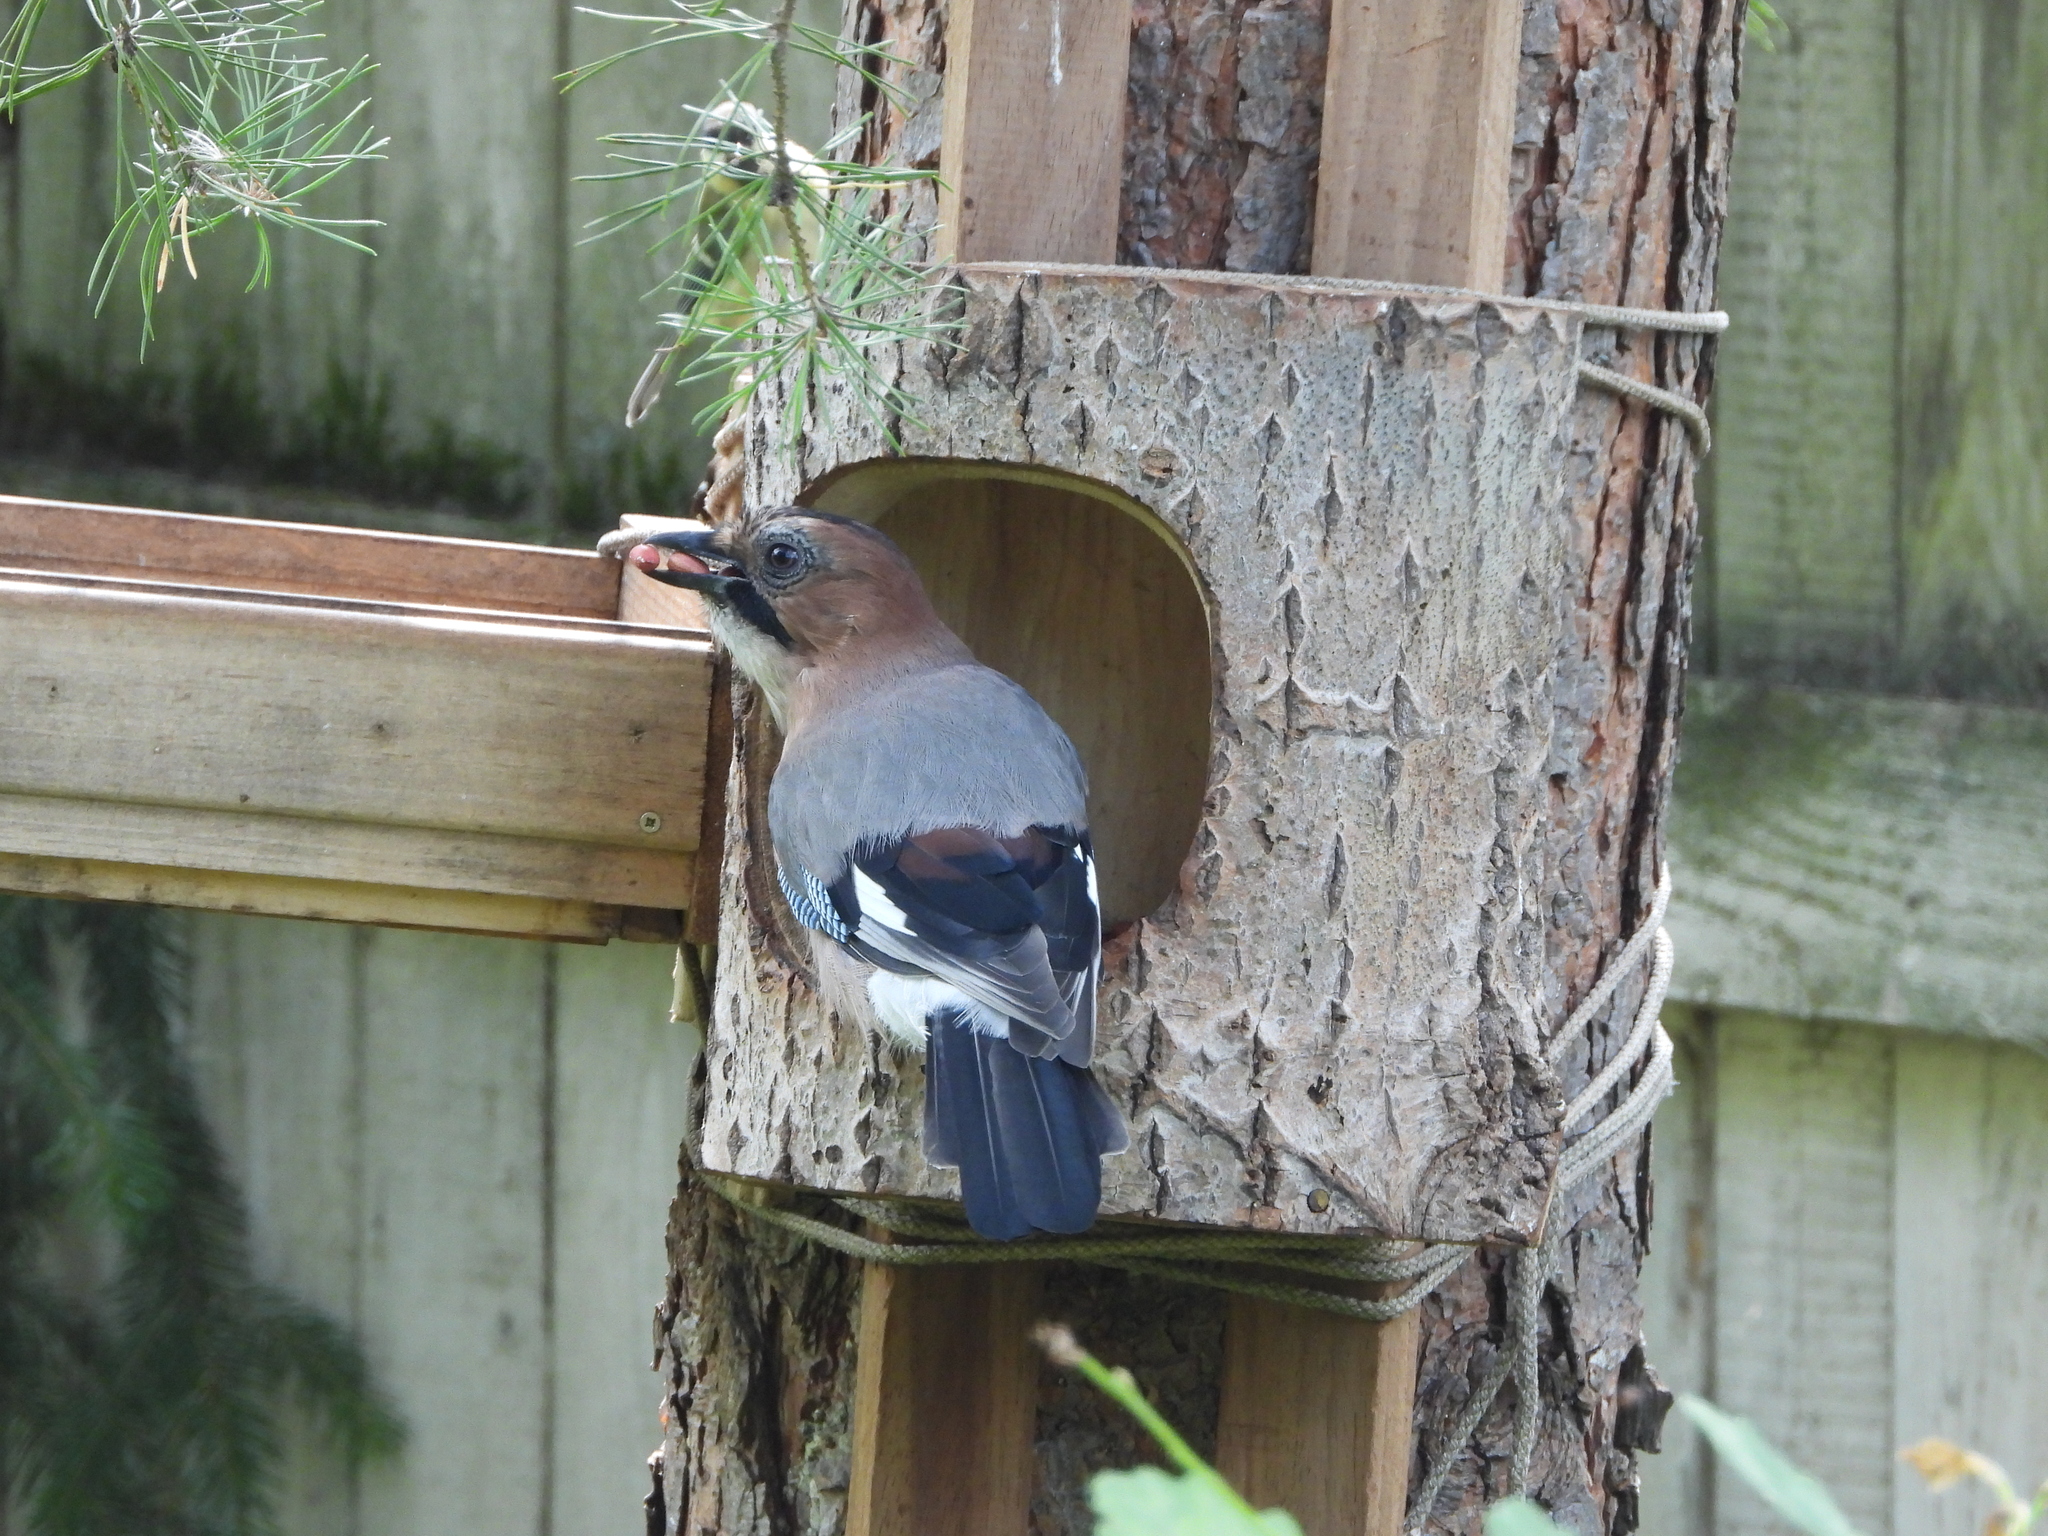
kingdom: Animalia
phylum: Chordata
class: Aves
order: Passeriformes
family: Corvidae
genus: Garrulus
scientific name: Garrulus glandarius
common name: Eurasian jay
